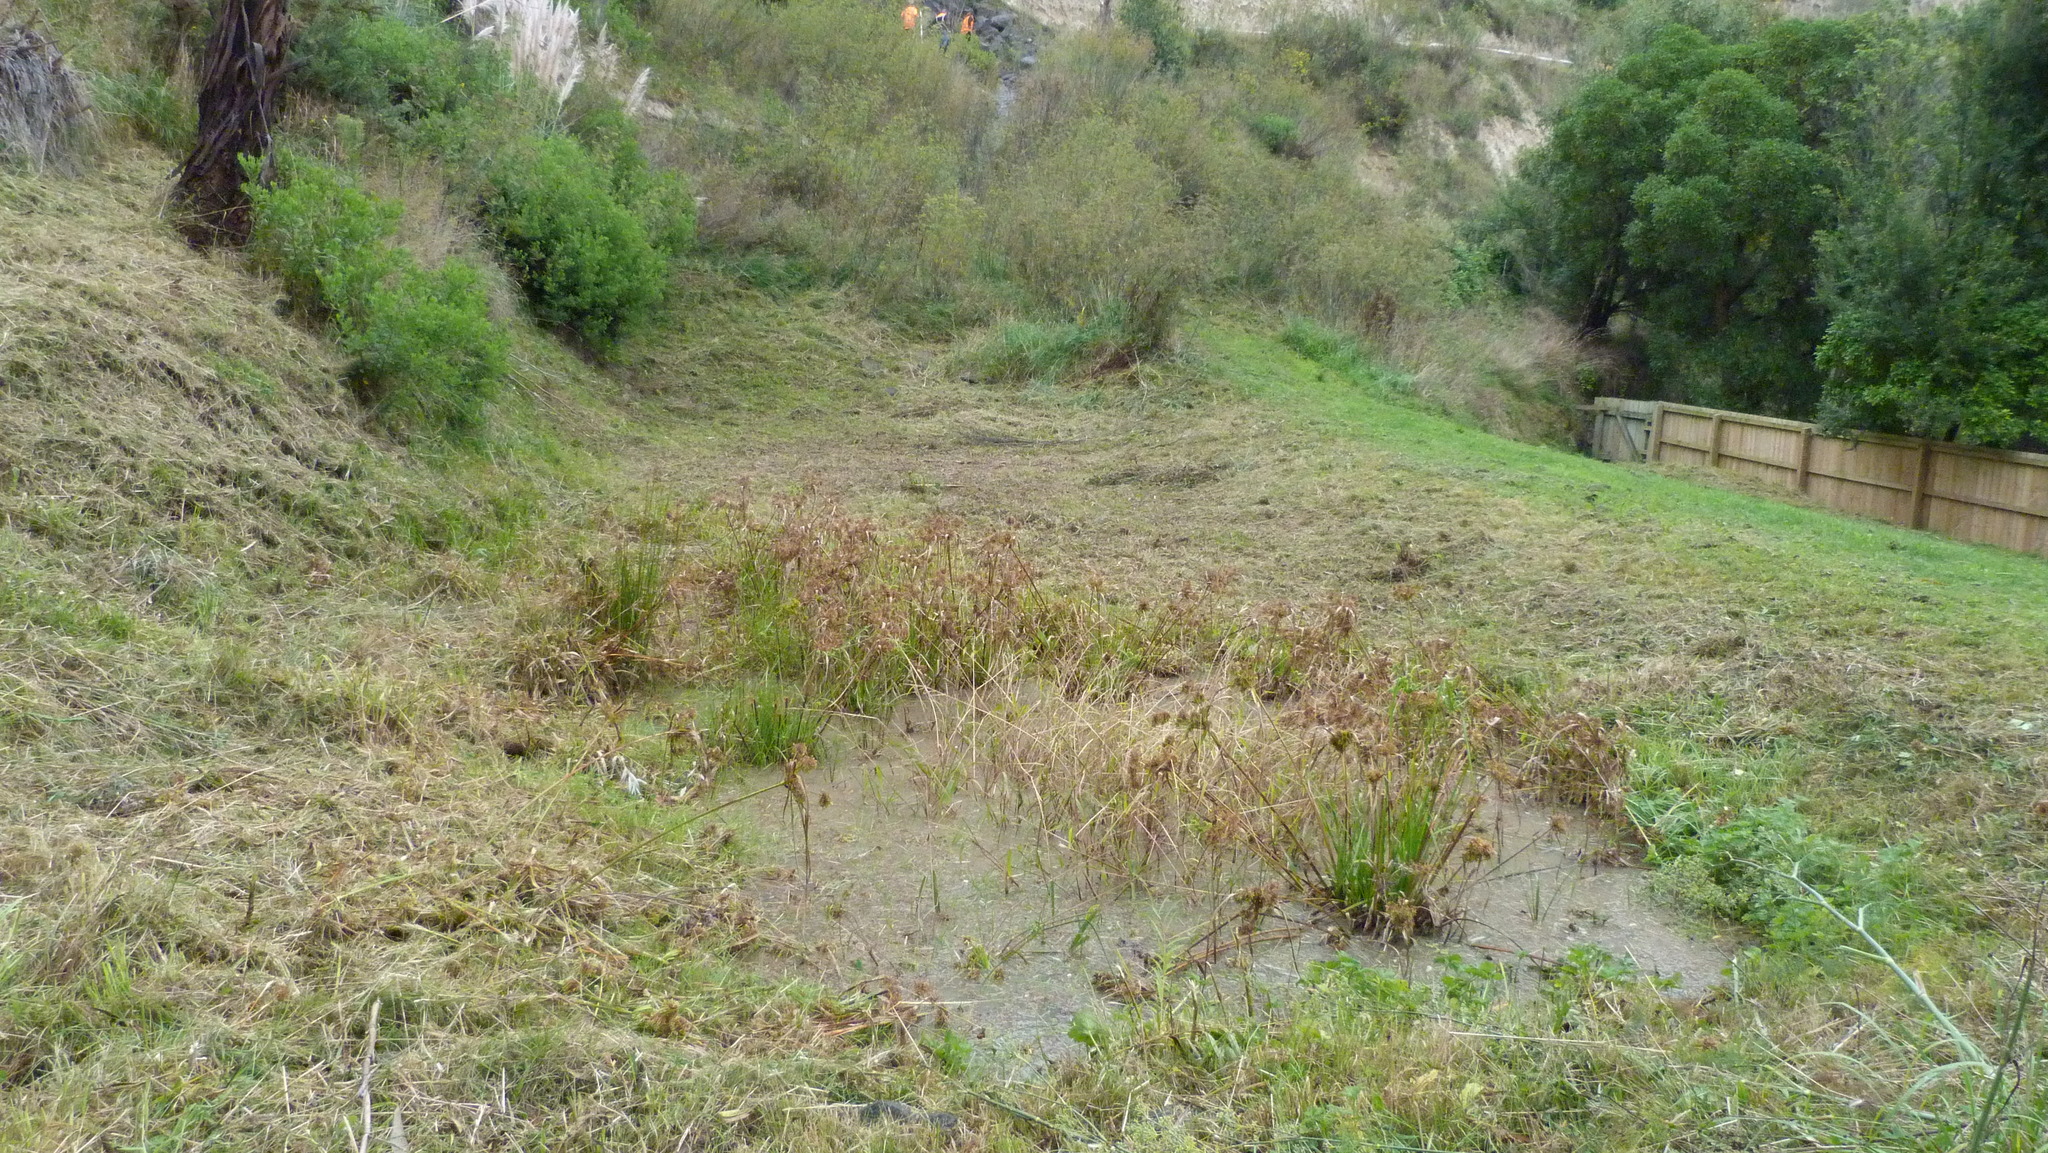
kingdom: Plantae
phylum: Tracheophyta
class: Liliopsida
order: Poales
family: Cyperaceae
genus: Cyperus
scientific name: Cyperus eragrostis
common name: Tall flatsedge
